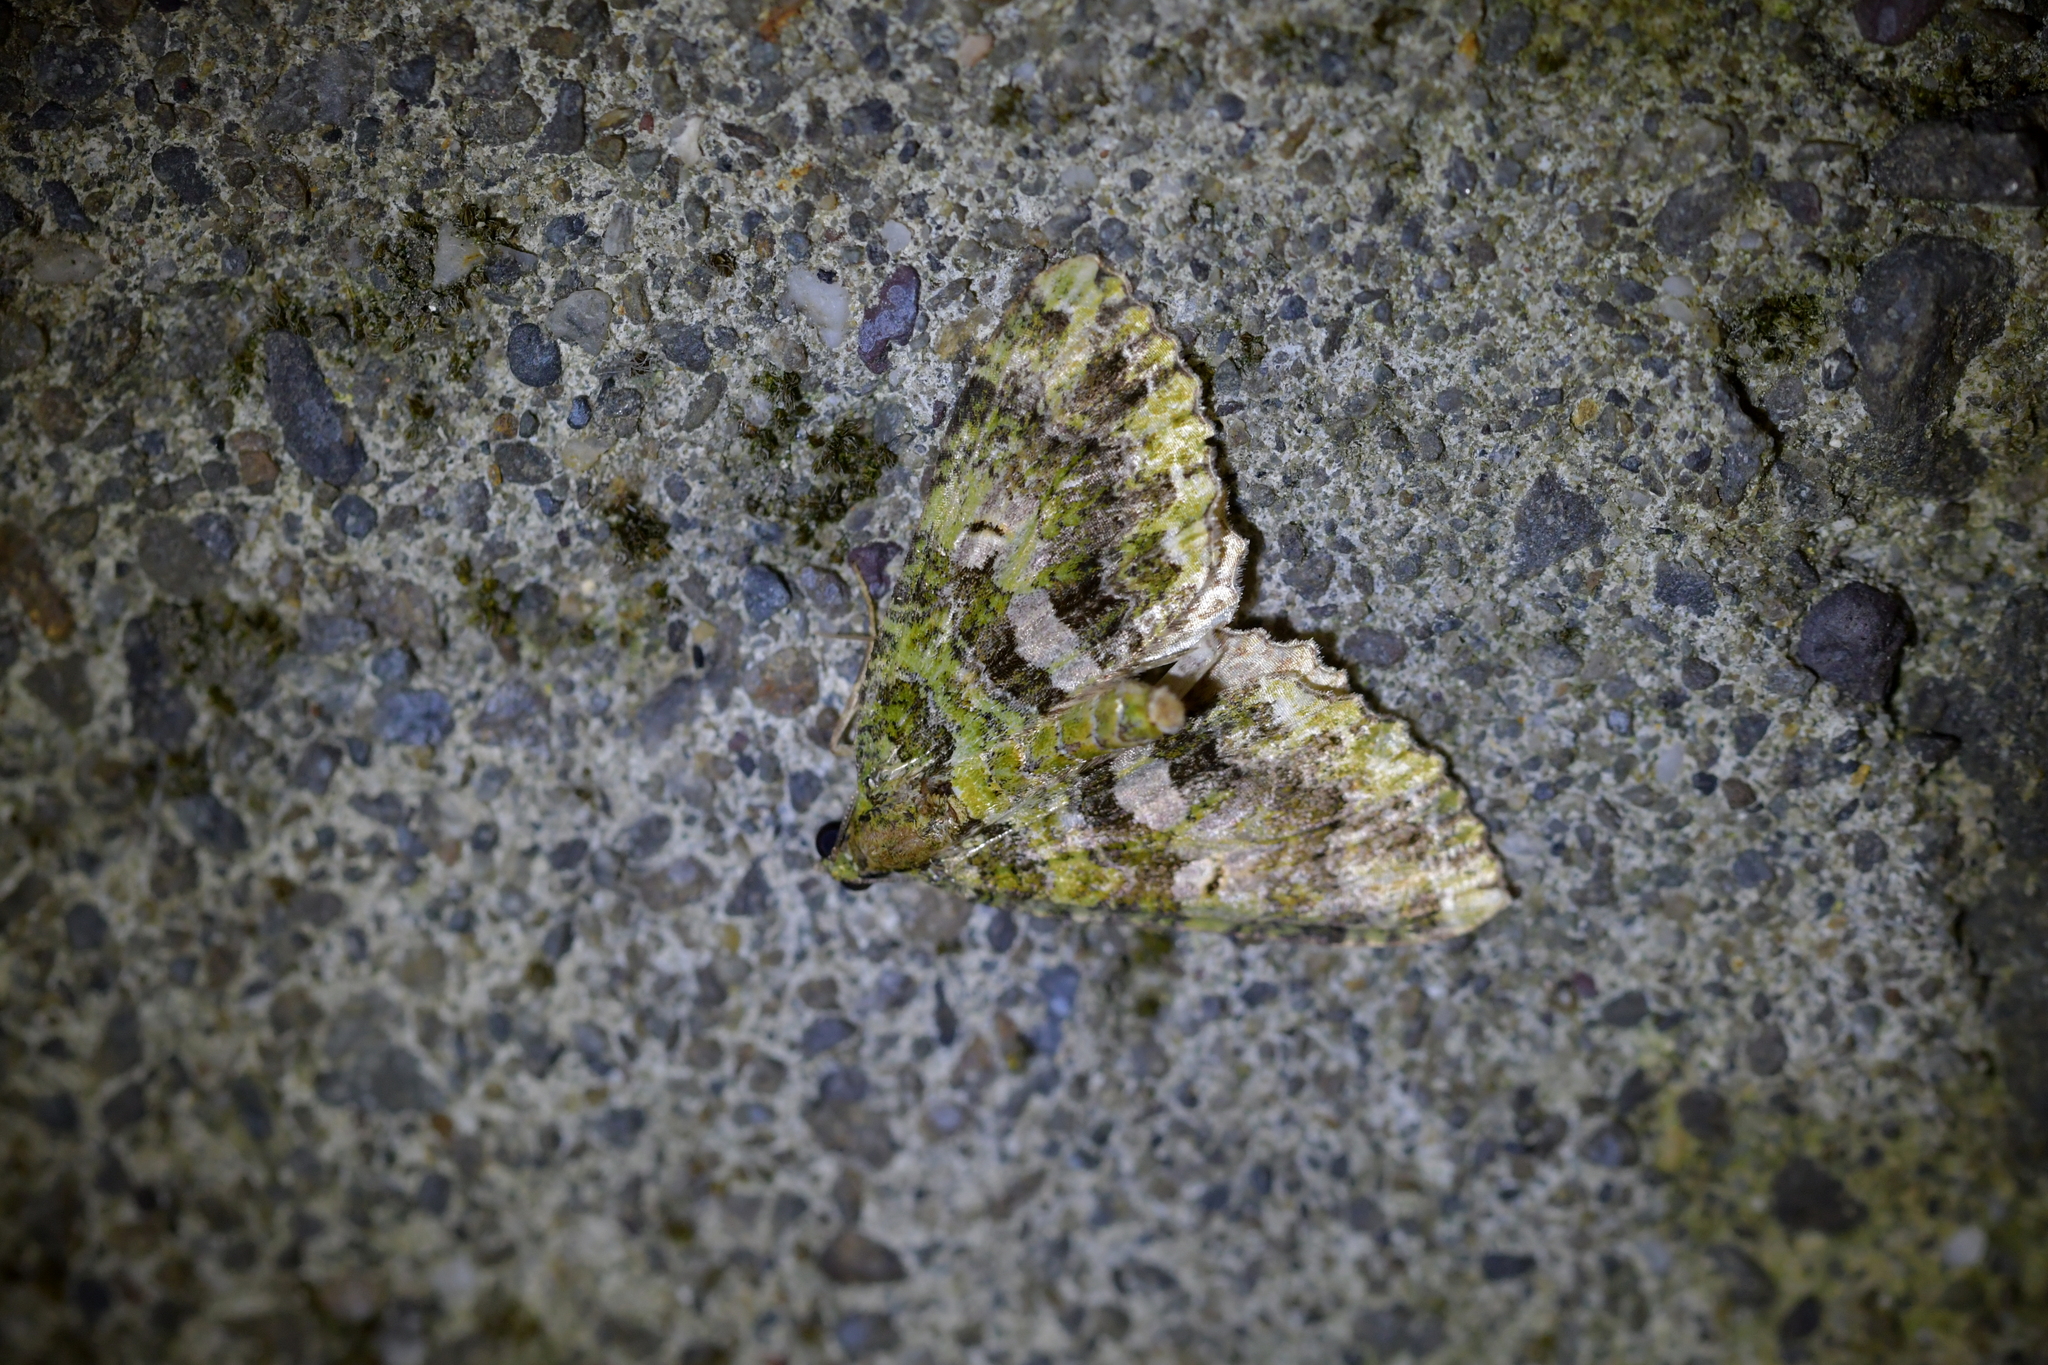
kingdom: Animalia
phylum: Arthropoda
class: Insecta
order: Lepidoptera
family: Geometridae
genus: Austrocidaria
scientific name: Austrocidaria similata
